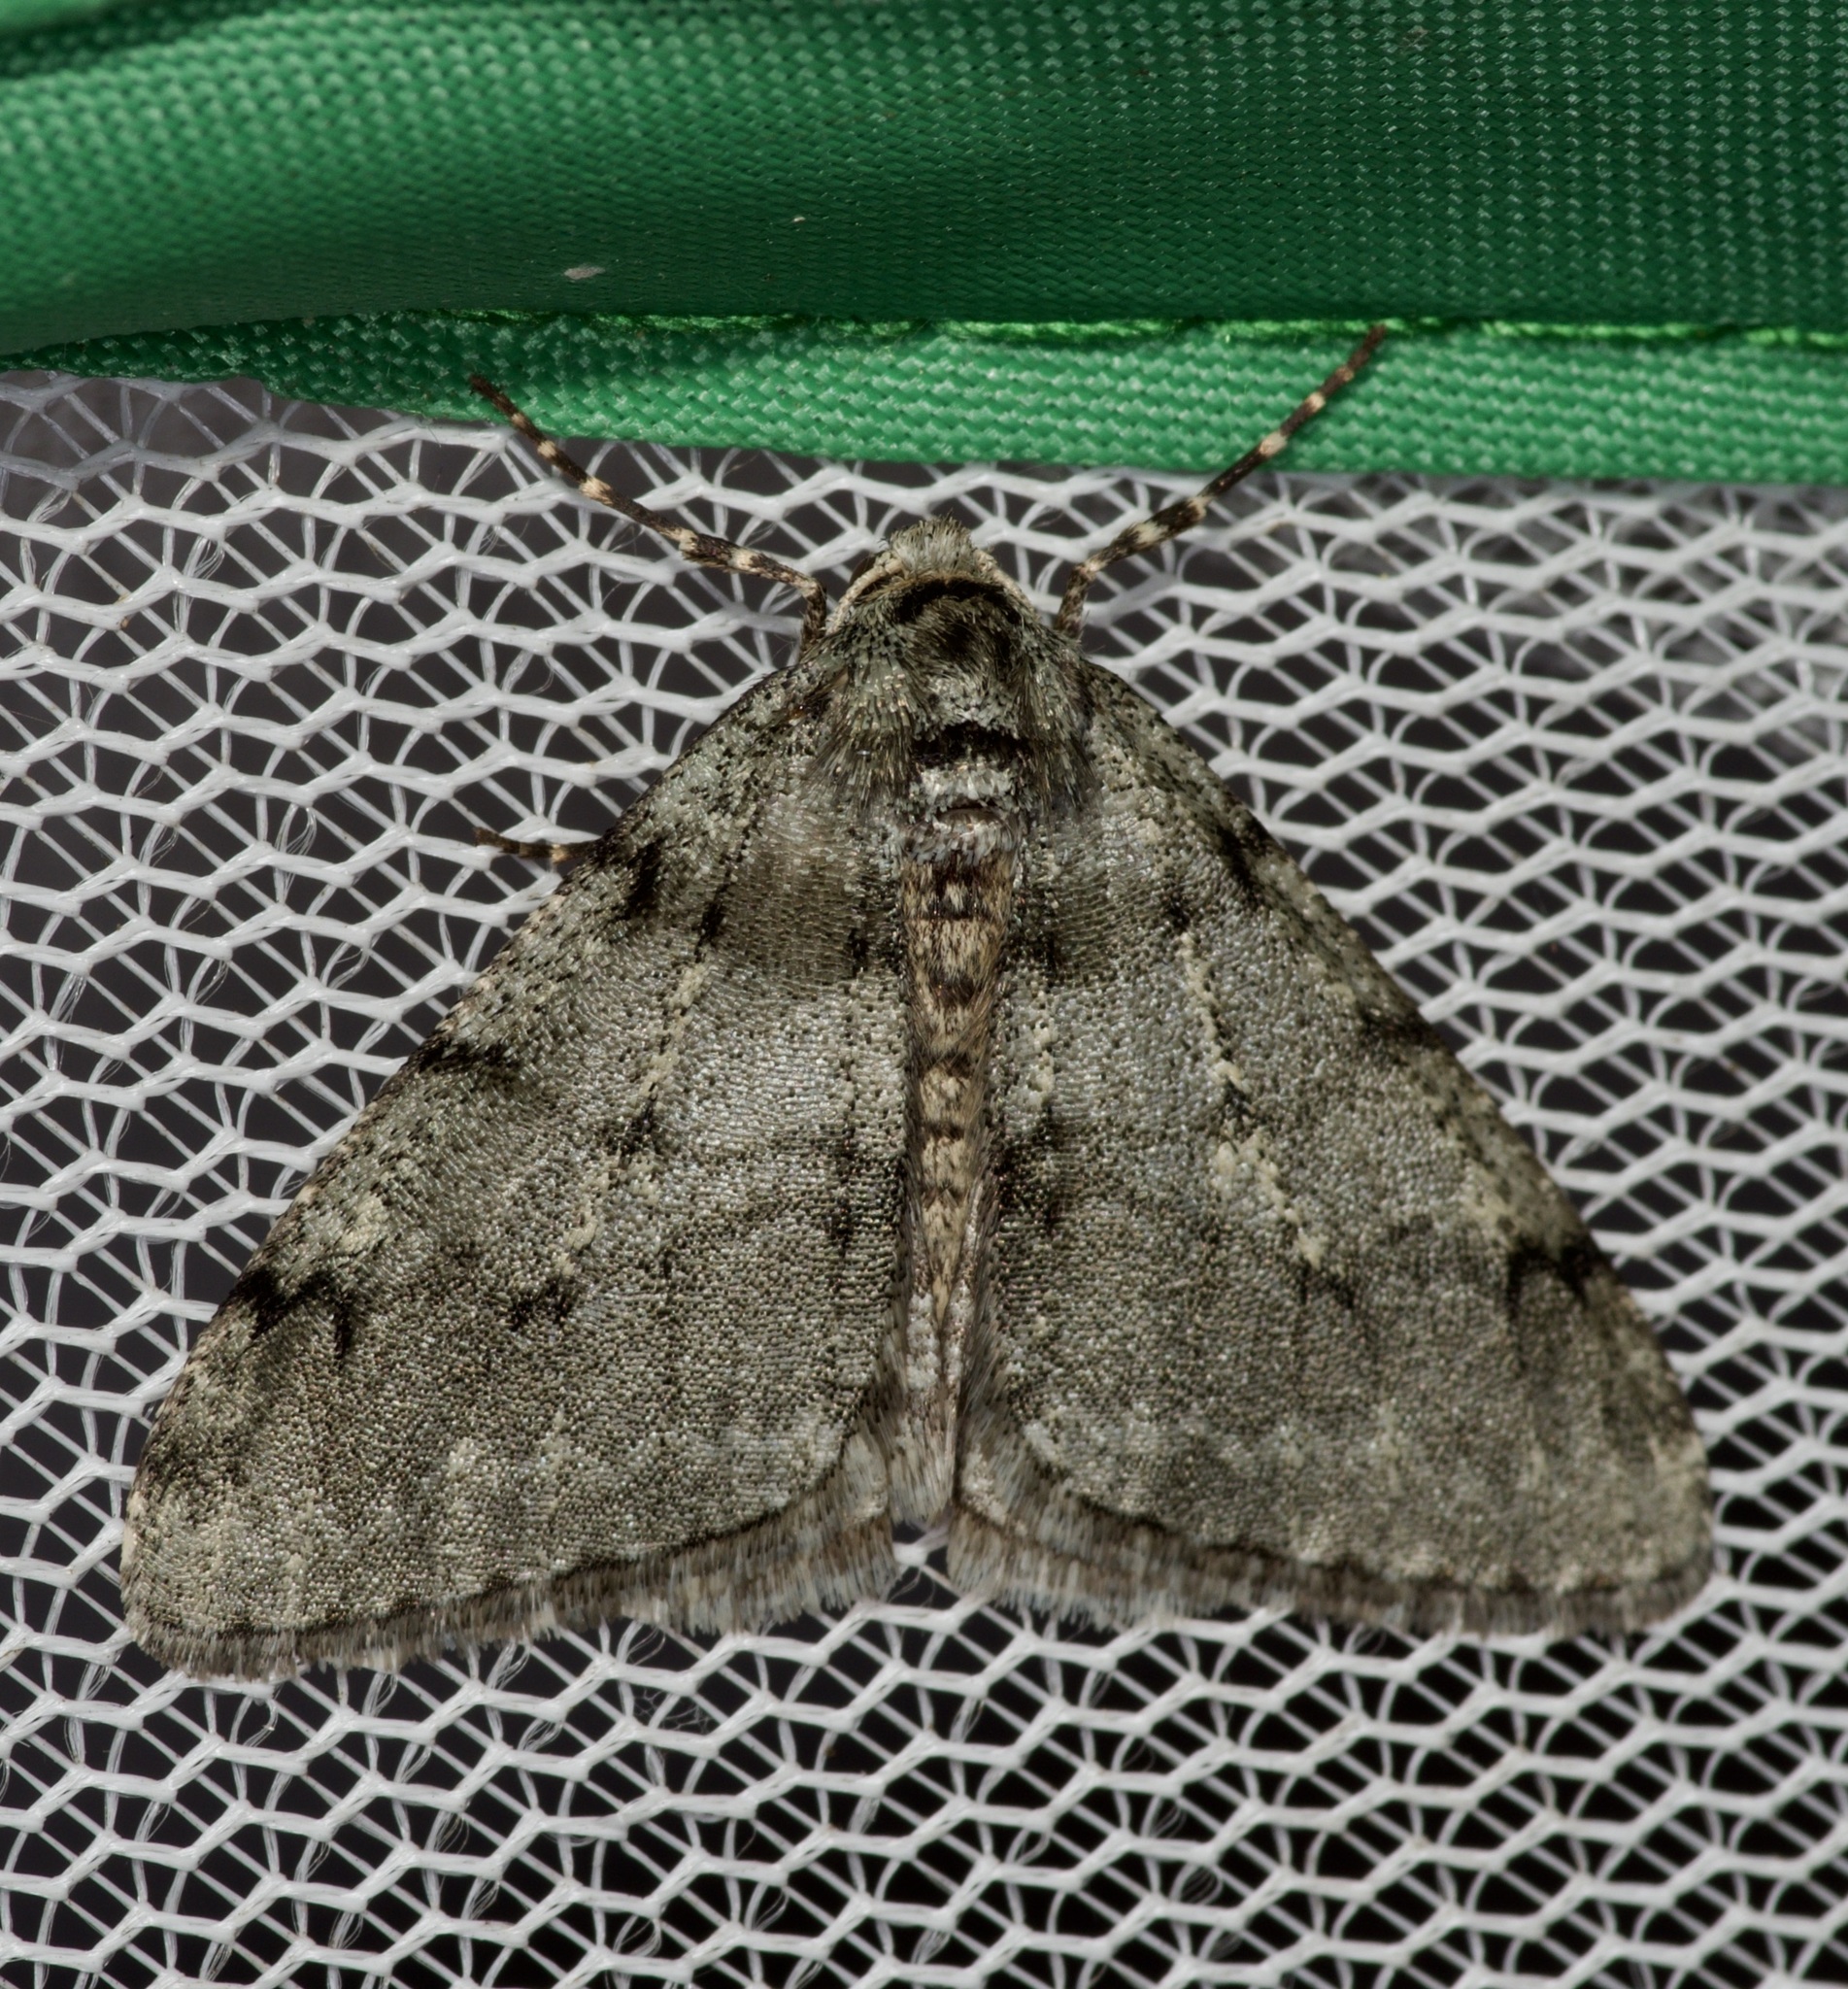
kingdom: Animalia
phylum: Arthropoda
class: Insecta
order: Lepidoptera
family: Geometridae
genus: Phigalia
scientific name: Phigalia strigataria
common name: Small phigalia
